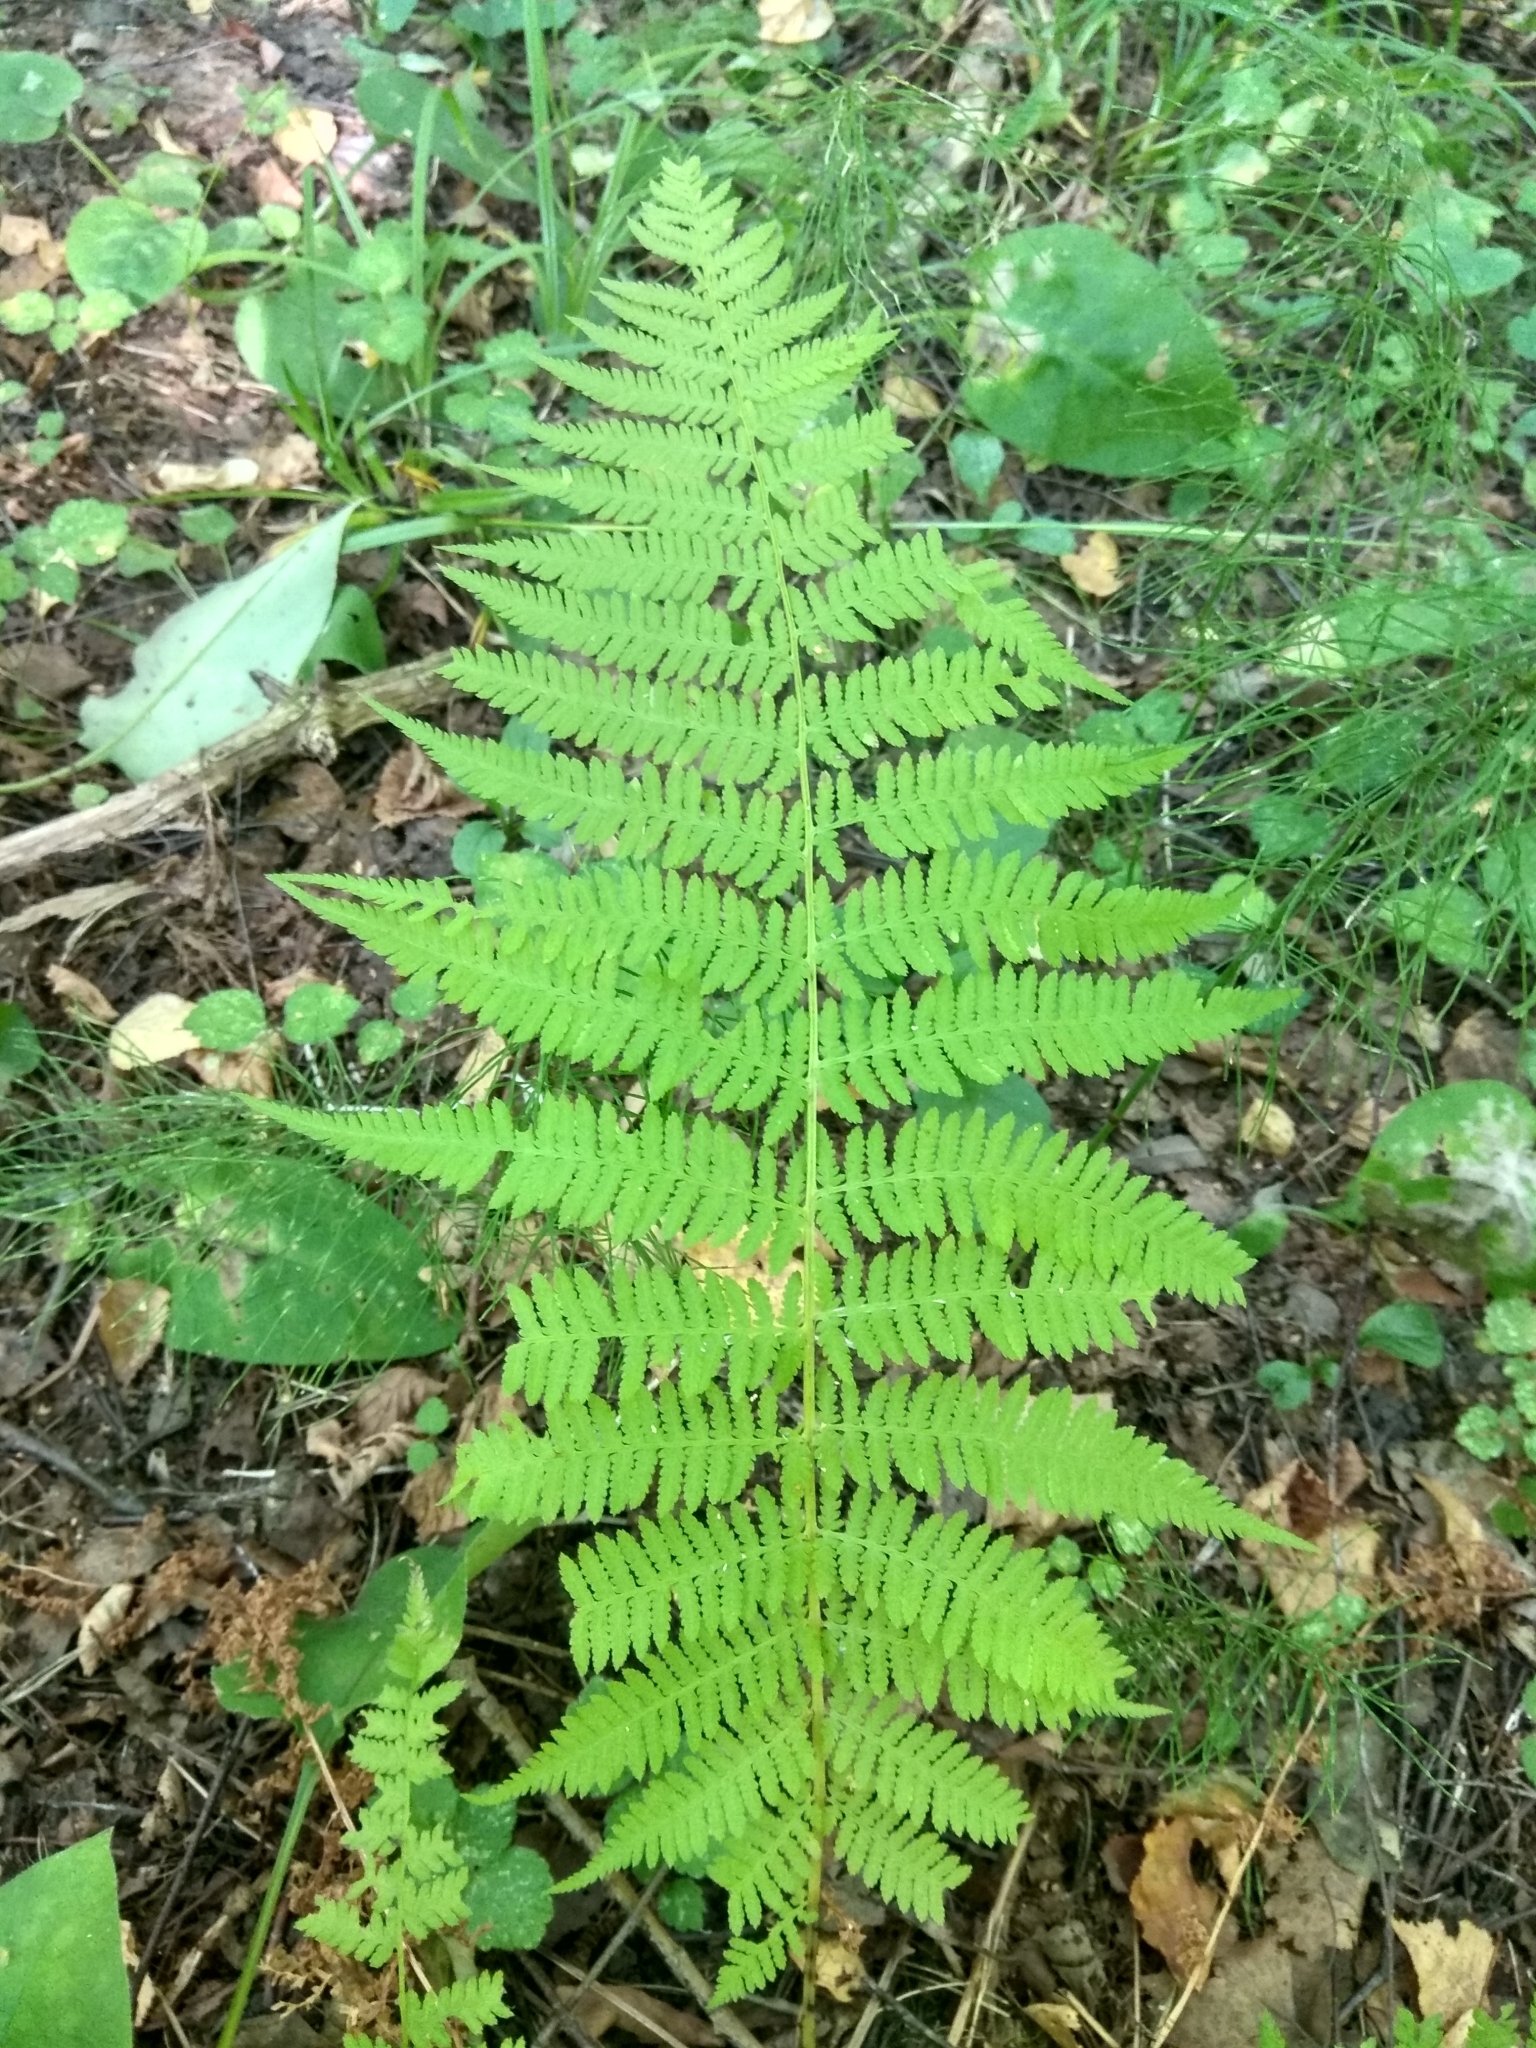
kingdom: Plantae
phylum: Tracheophyta
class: Polypodiopsida
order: Polypodiales
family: Athyriaceae
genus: Athyrium
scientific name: Athyrium filix-femina
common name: Lady fern
